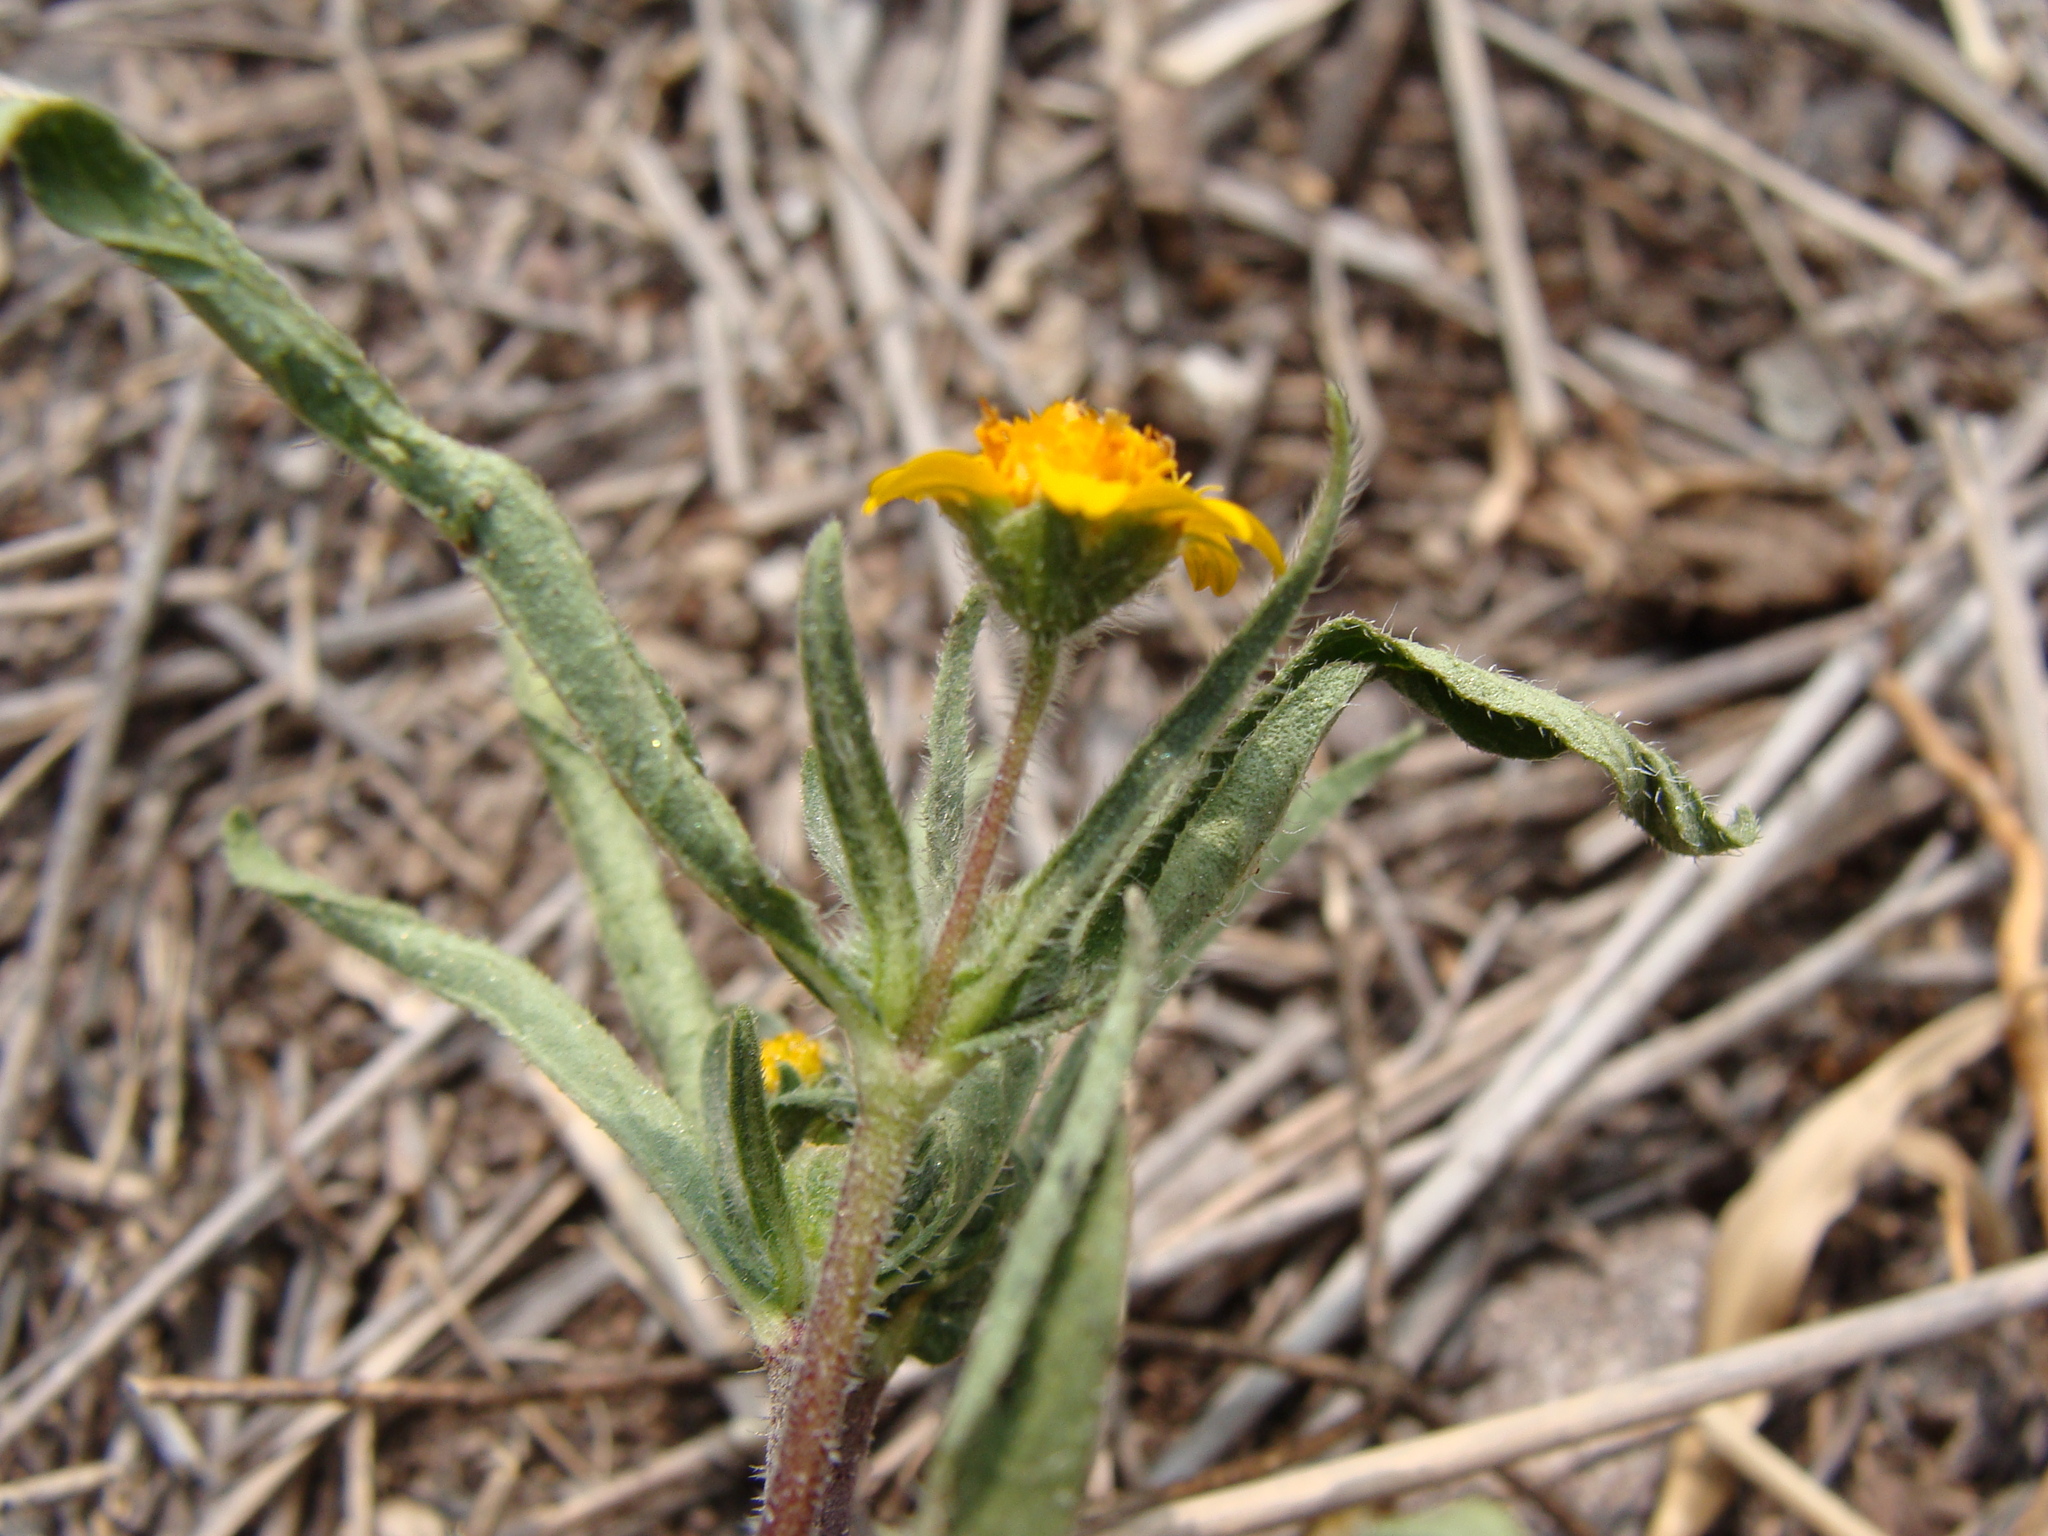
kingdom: Plantae
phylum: Tracheophyta
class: Magnoliopsida
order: Asterales
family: Asteraceae
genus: Lasianthaea
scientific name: Lasianthaea podocephala
